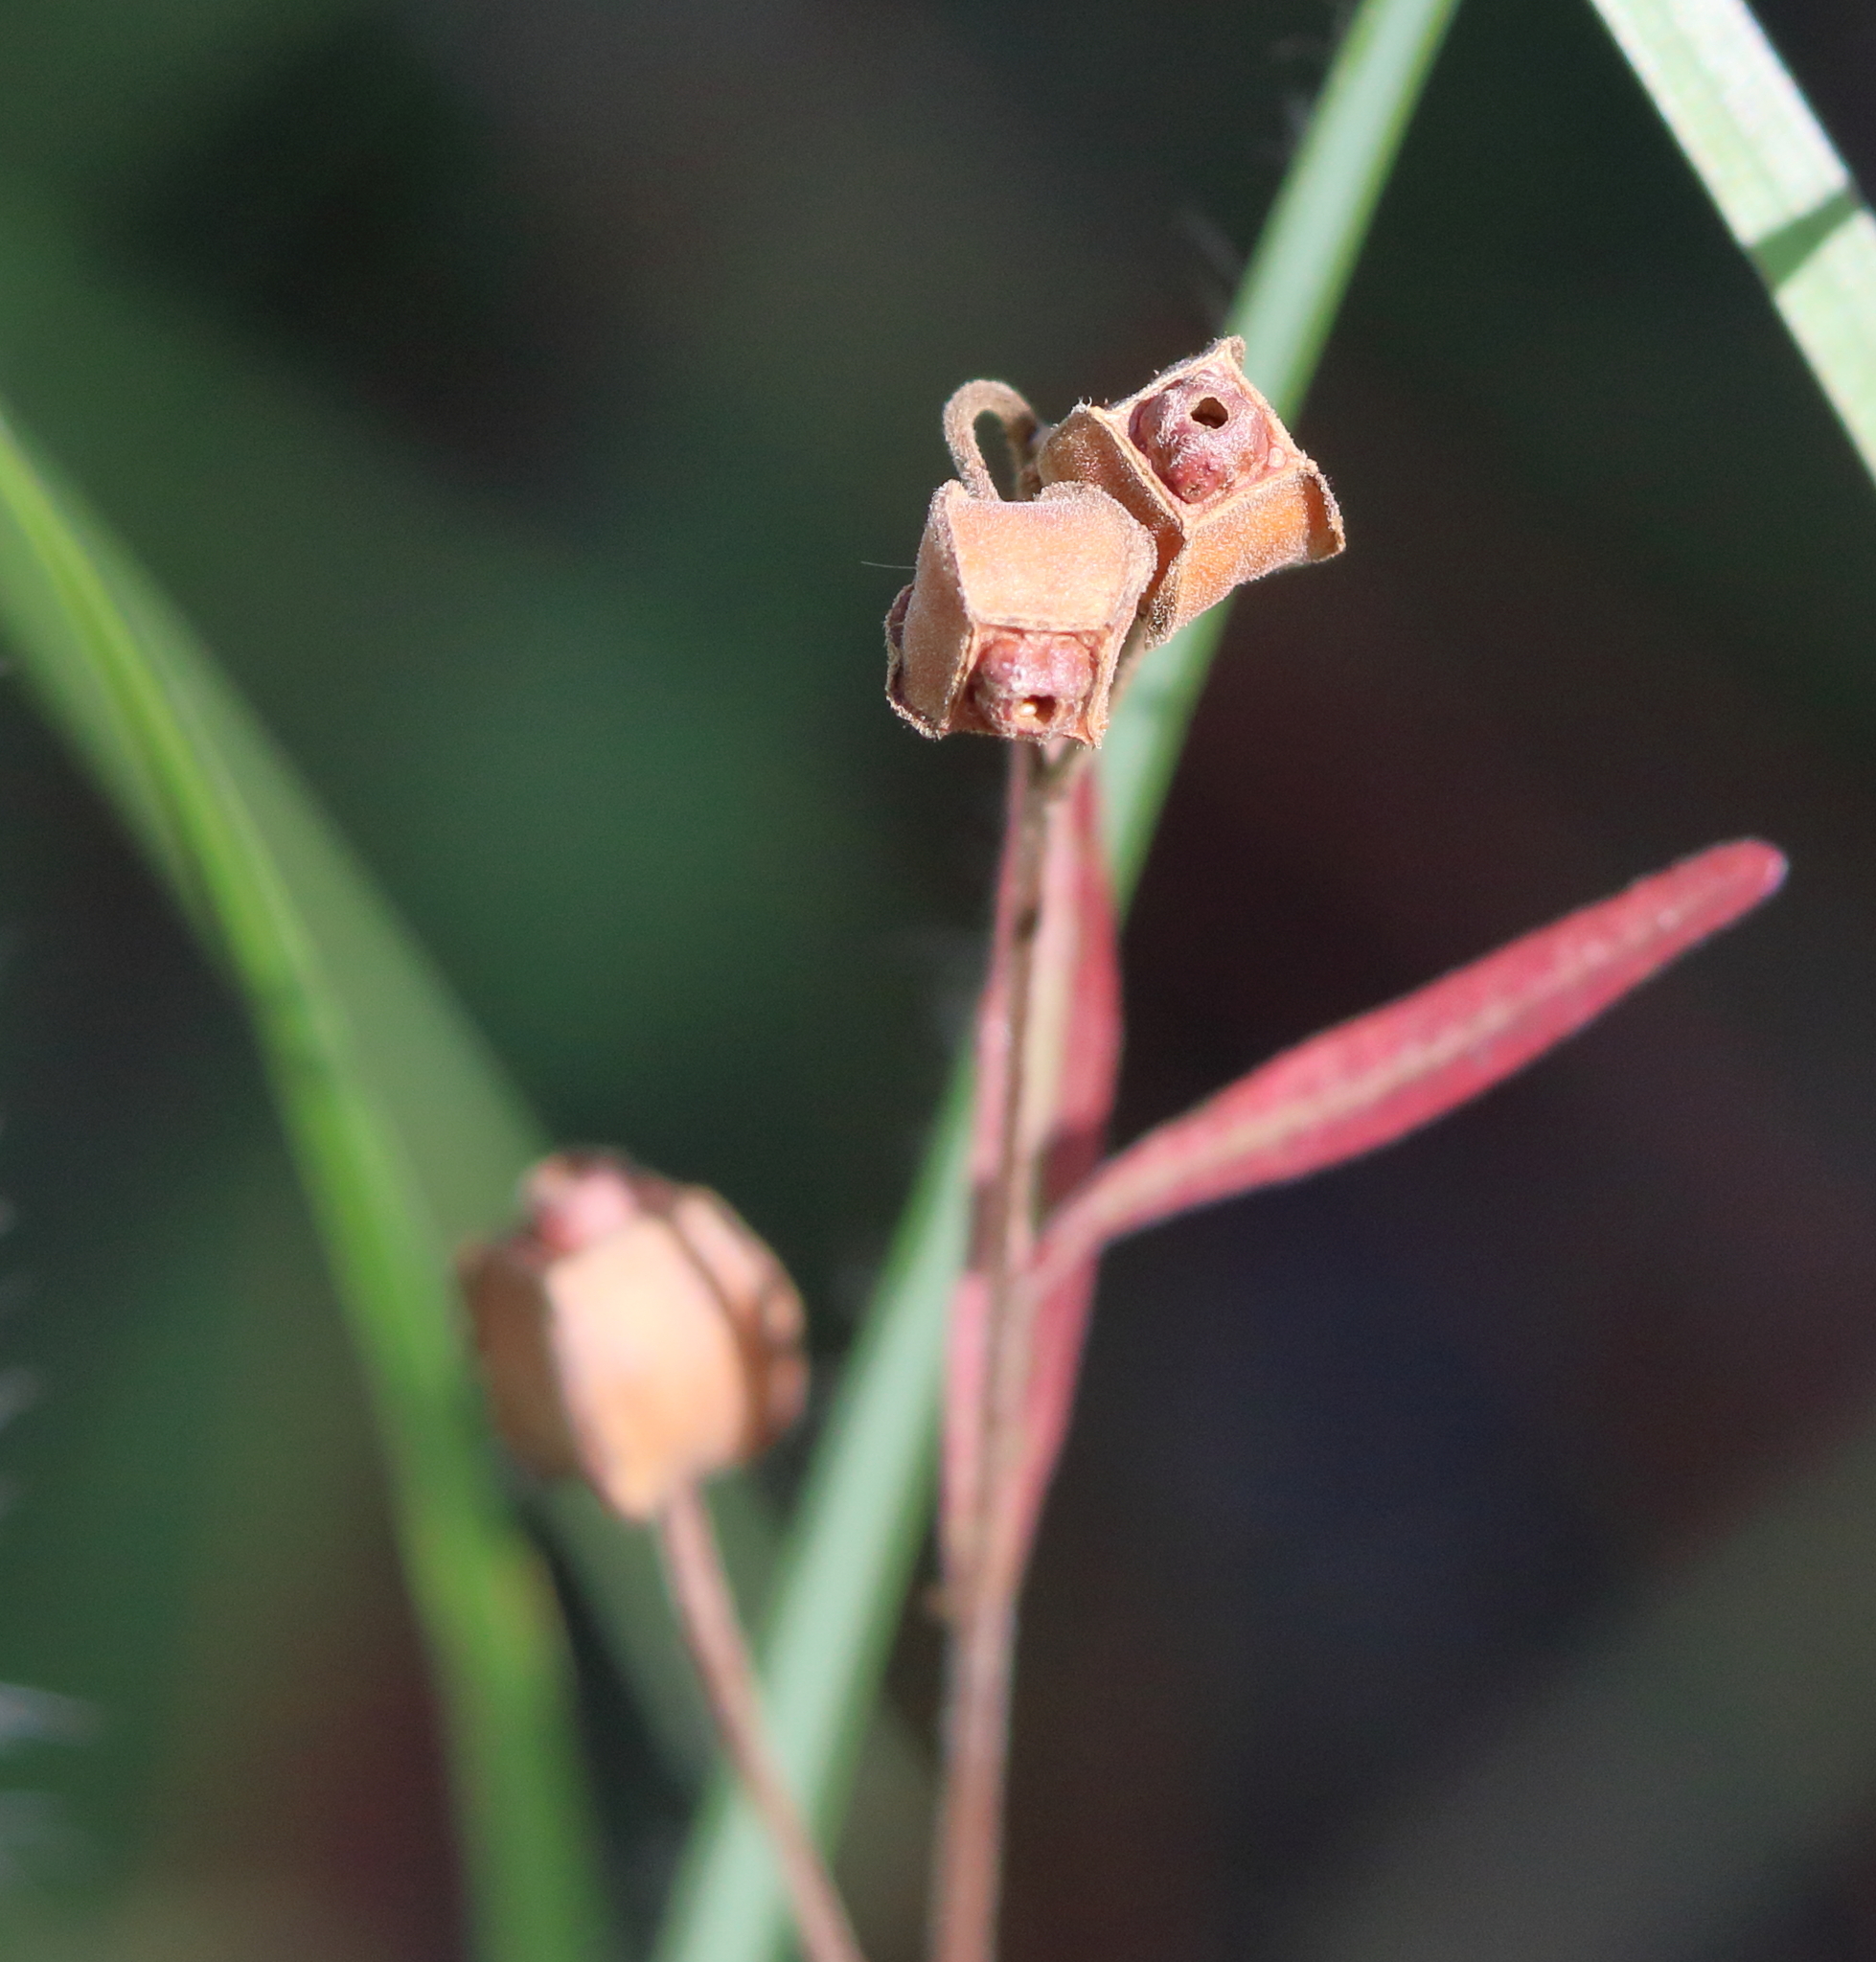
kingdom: Plantae
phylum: Tracheophyta
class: Magnoliopsida
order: Myrtales
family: Onagraceae
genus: Ludwigia
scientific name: Ludwigia maritima
